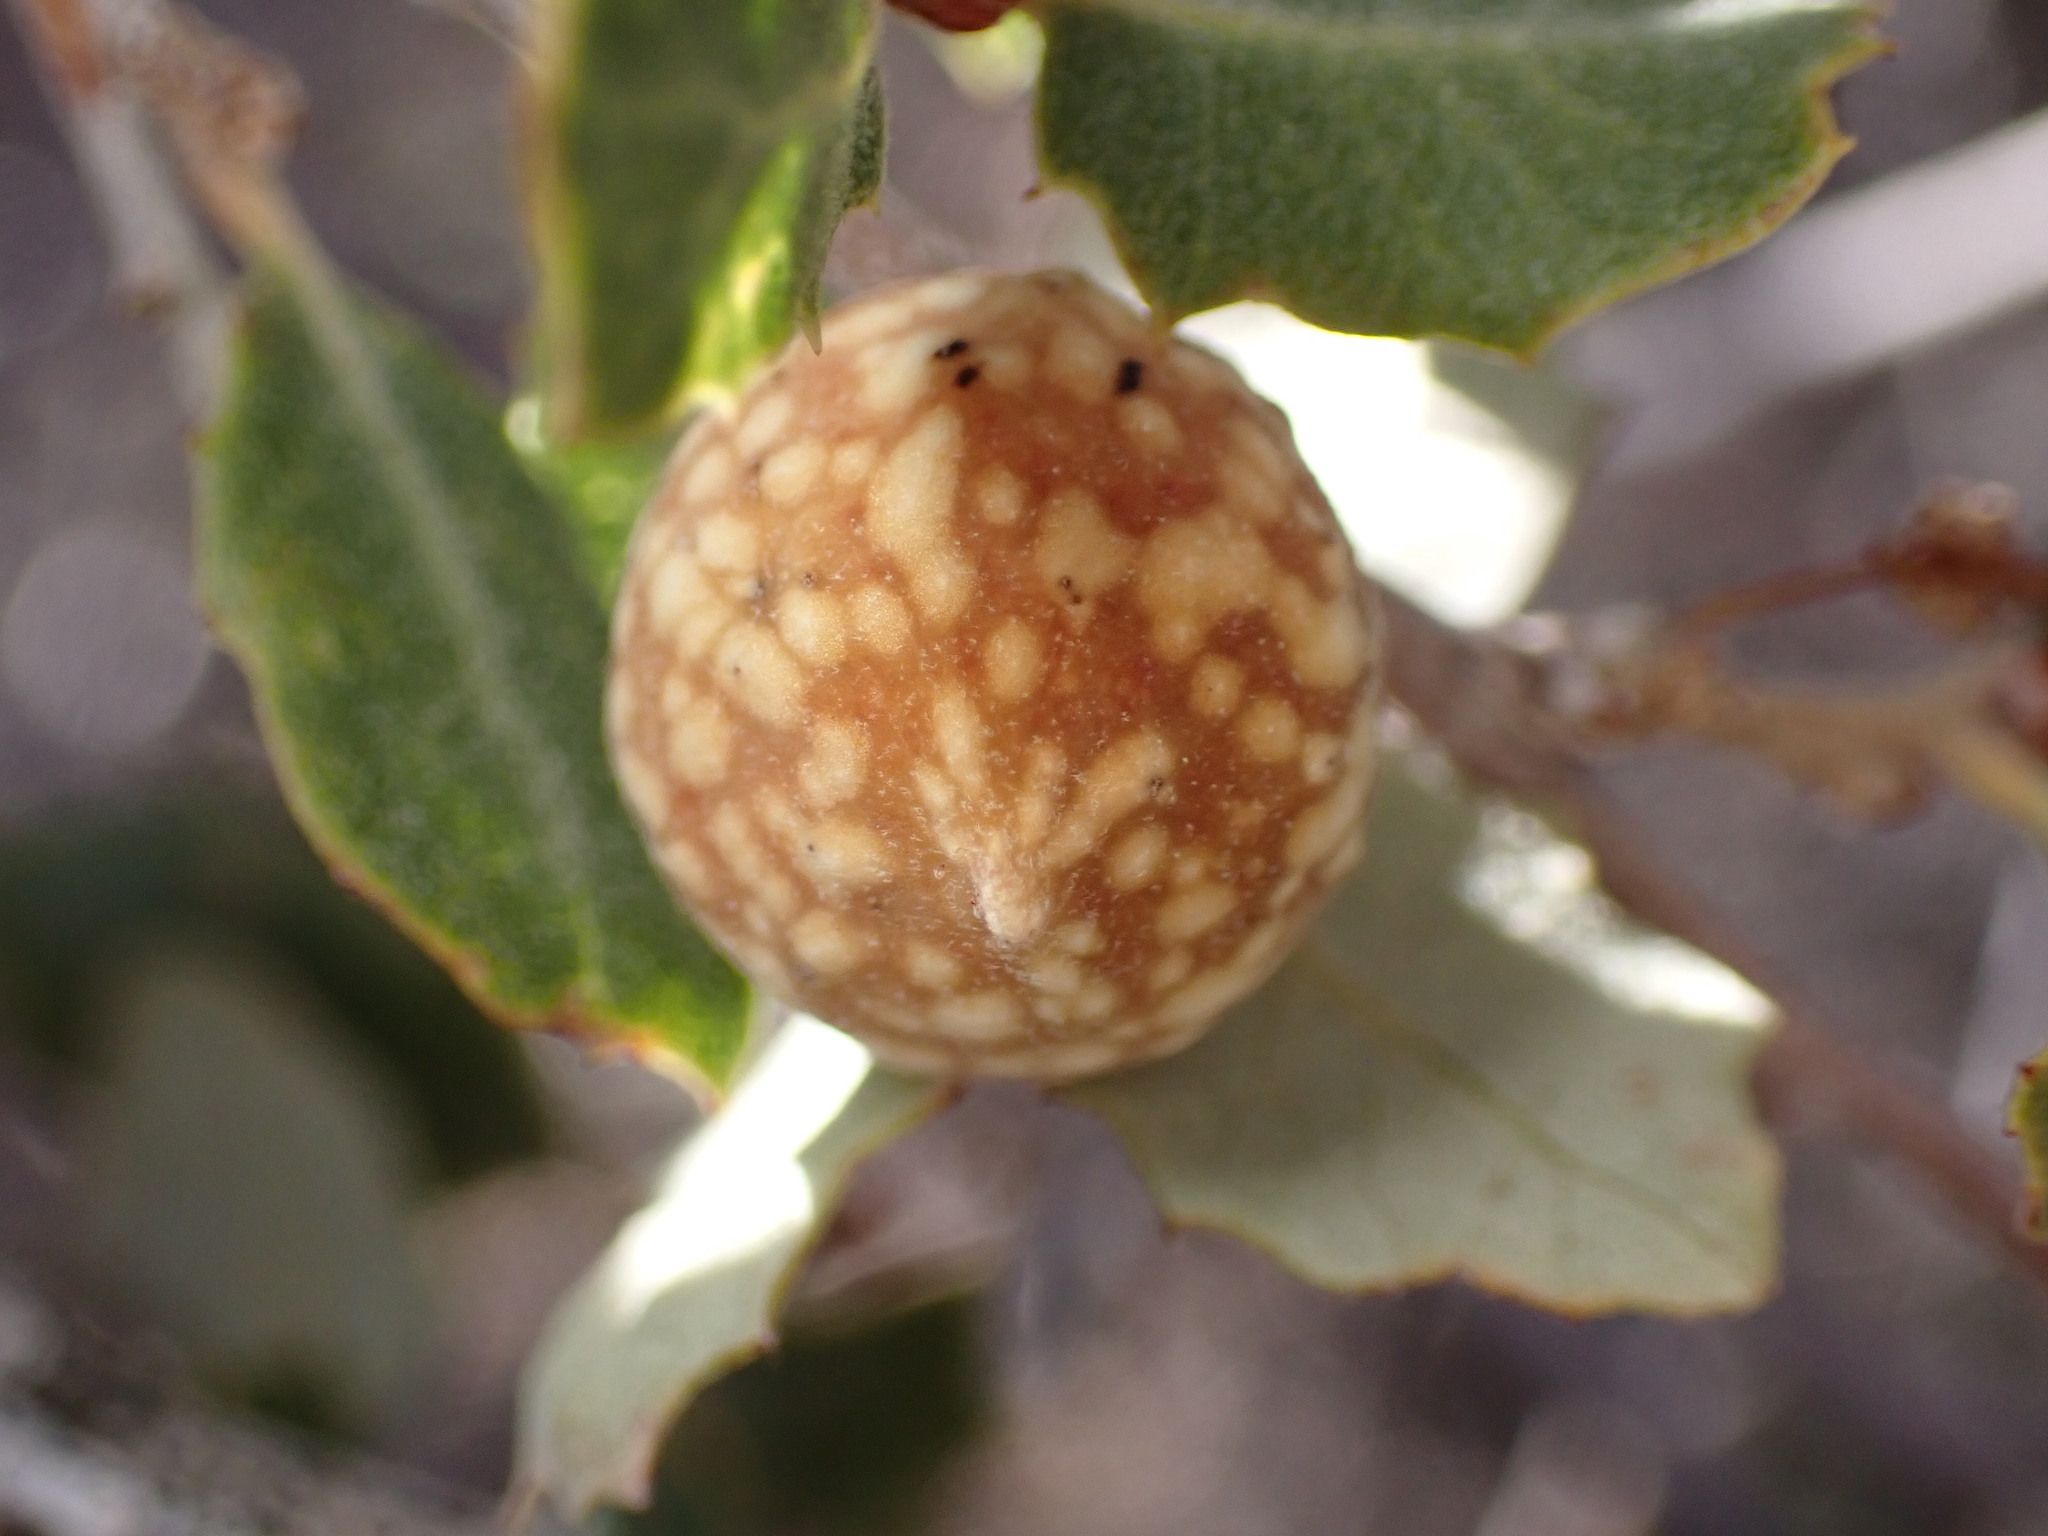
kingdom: Animalia
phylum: Arthropoda
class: Insecta
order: Hymenoptera
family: Cynipidae
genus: Burnettweldia
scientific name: Burnettweldia
